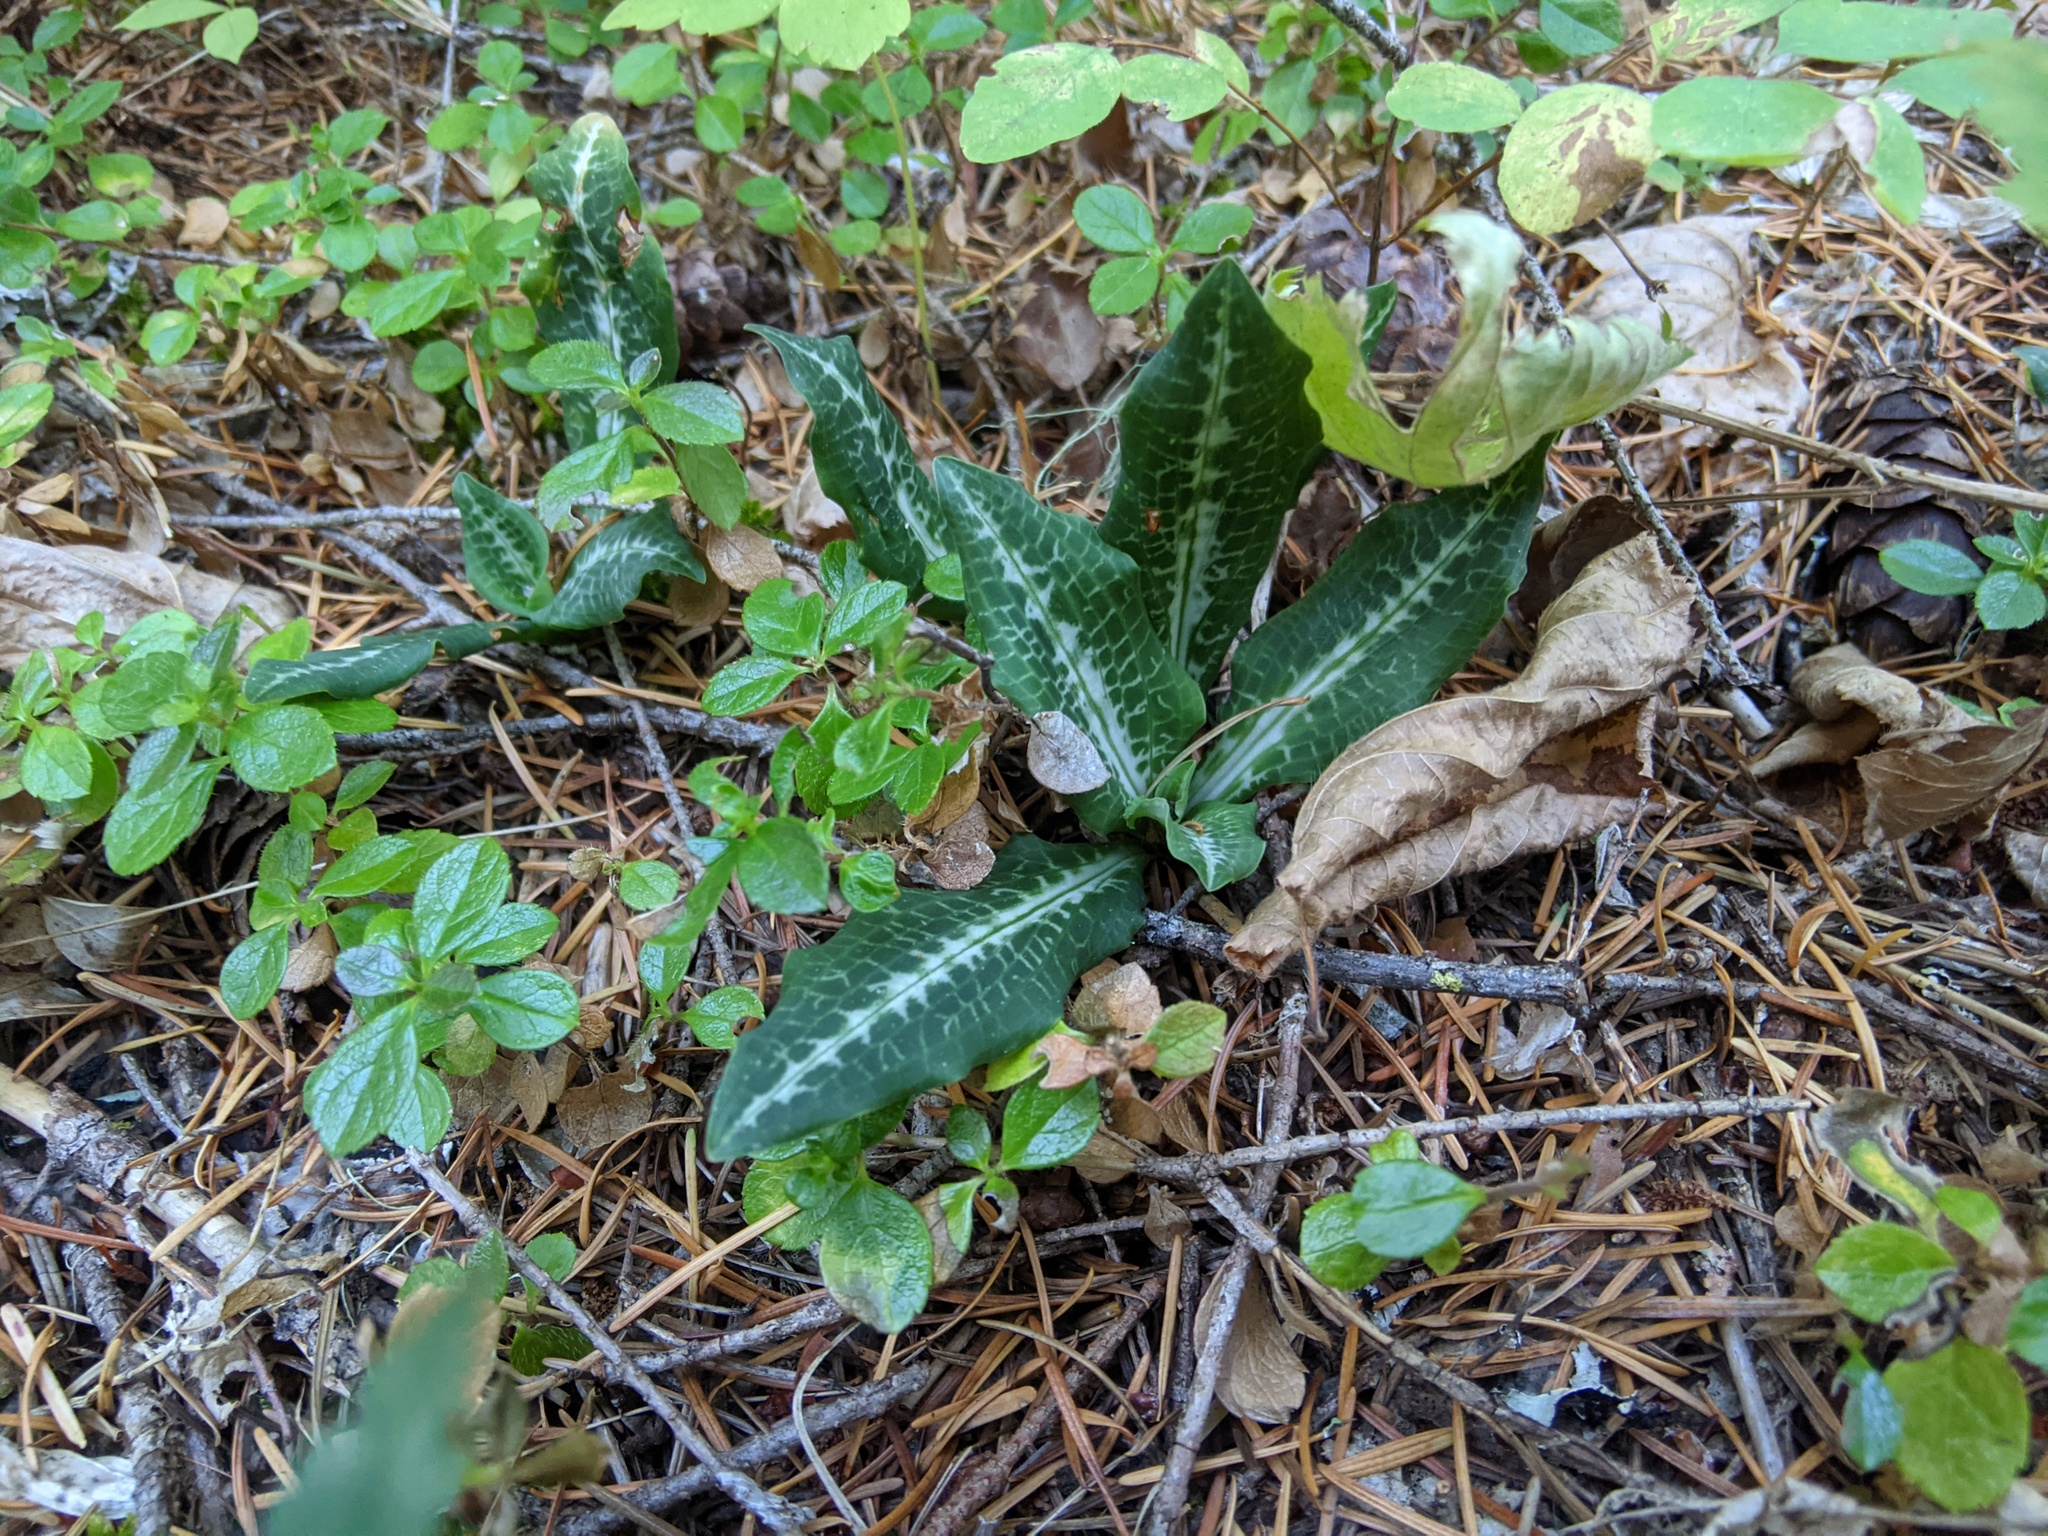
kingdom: Plantae
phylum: Tracheophyta
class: Liliopsida
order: Asparagales
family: Orchidaceae
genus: Goodyera
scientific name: Goodyera oblongifolia
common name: Giant rattlesnake-plantain
